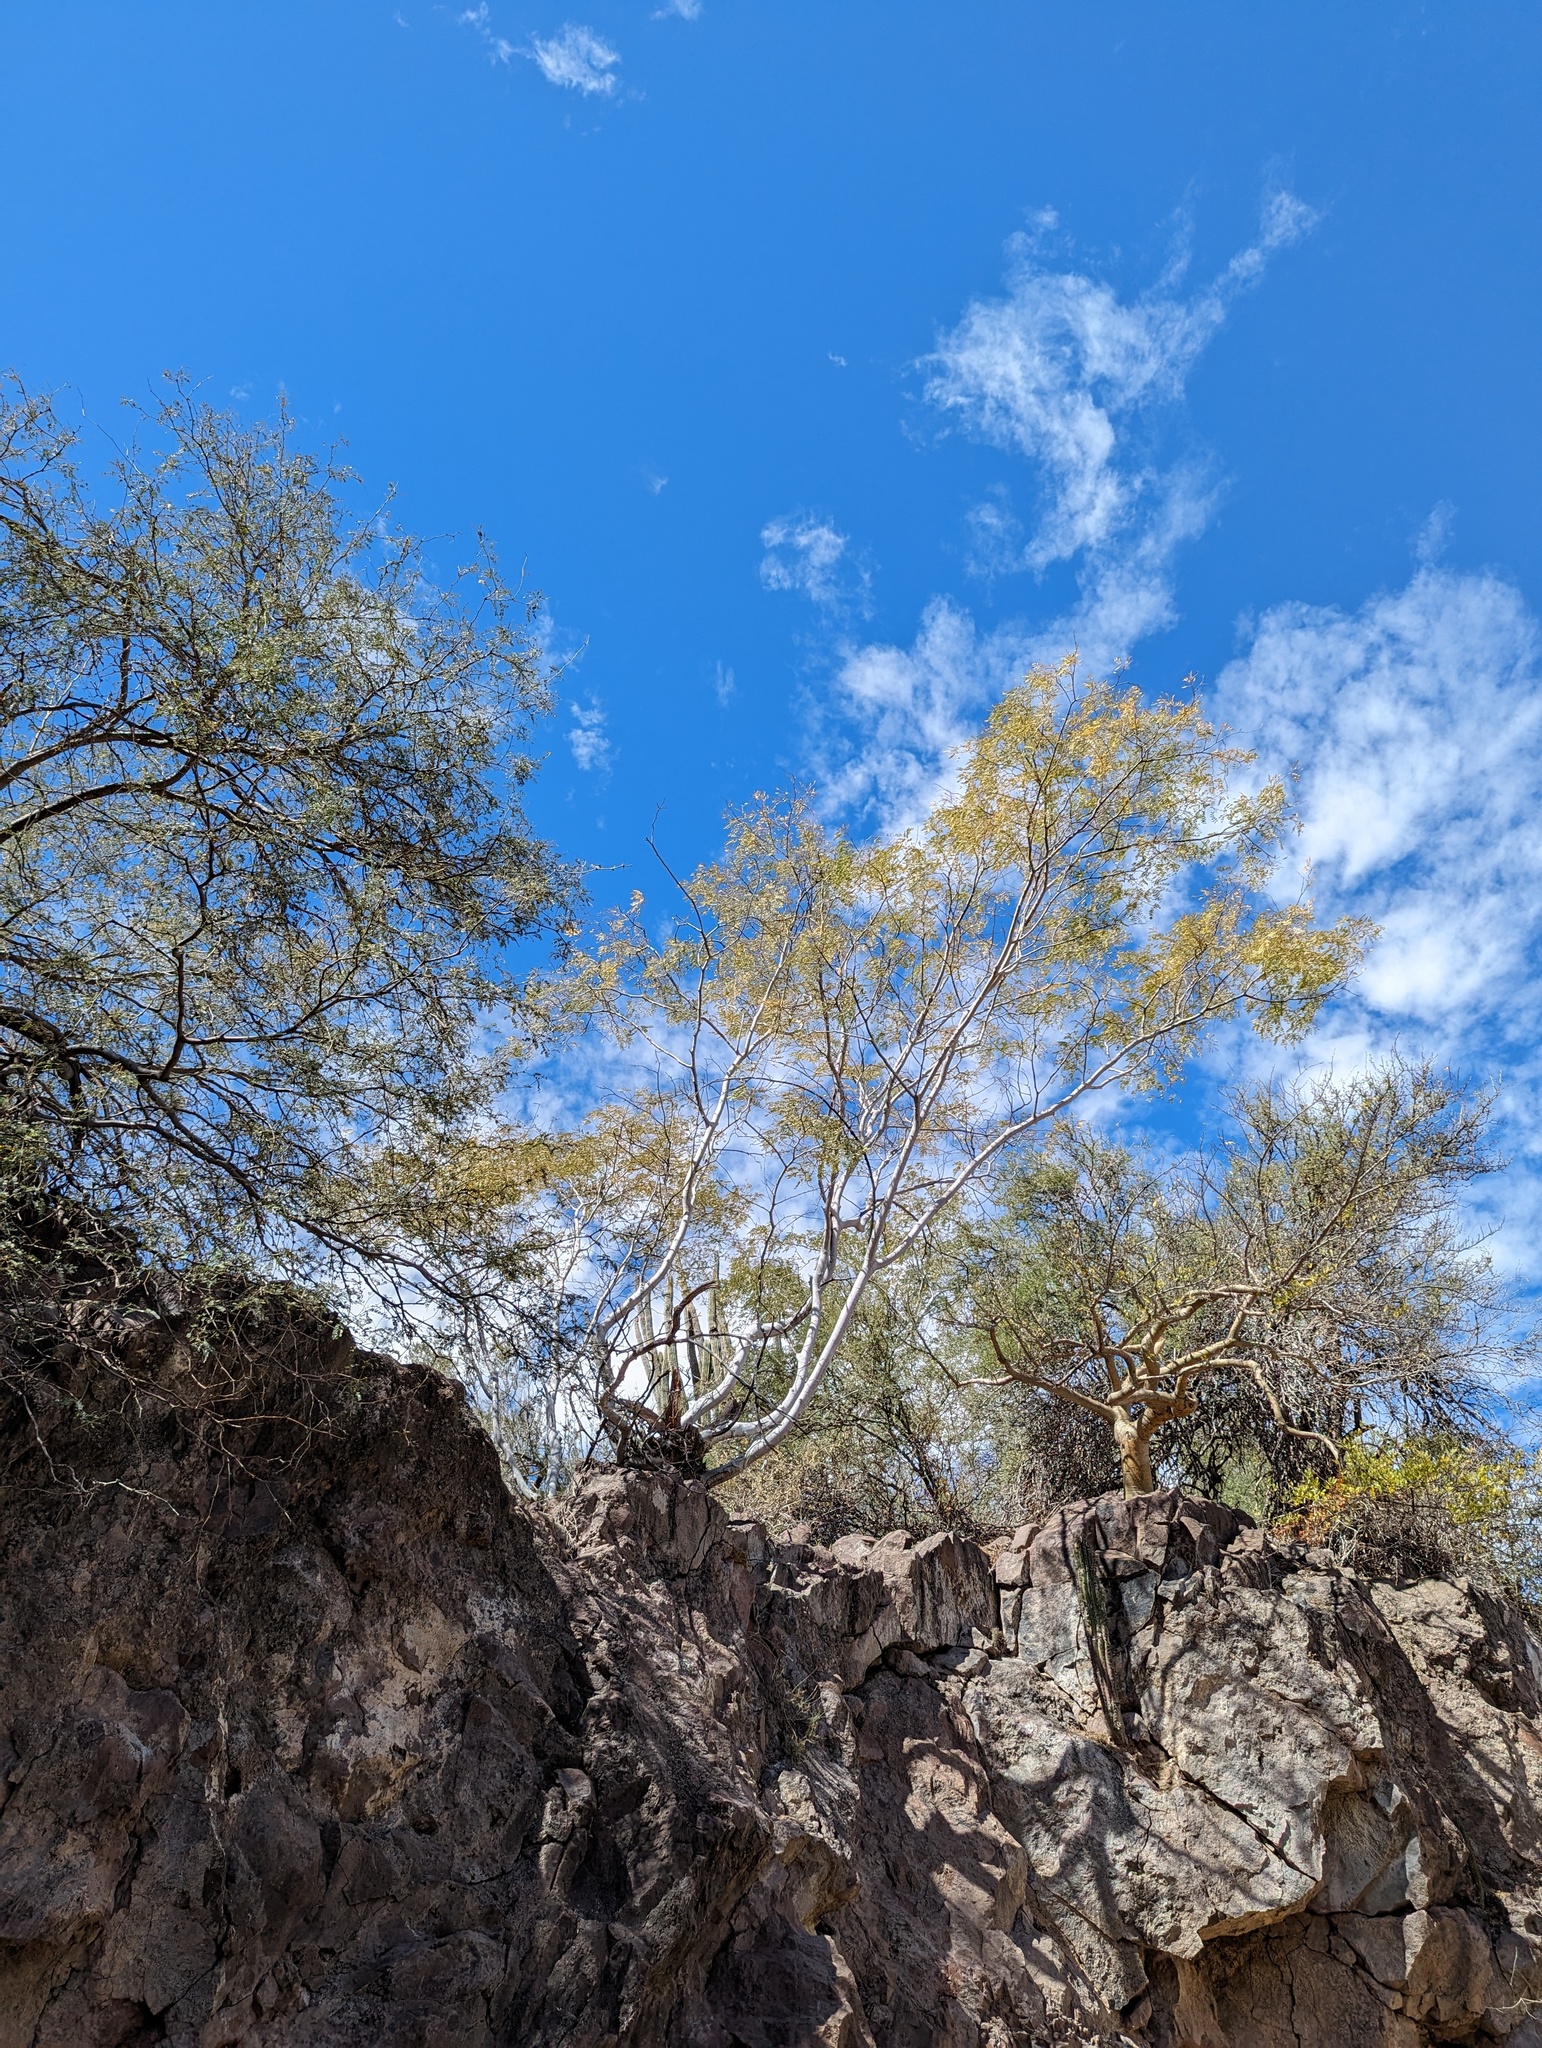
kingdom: Plantae
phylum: Tracheophyta
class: Magnoliopsida
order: Fabales
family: Fabaceae
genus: Lysiloma
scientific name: Lysiloma candidum
